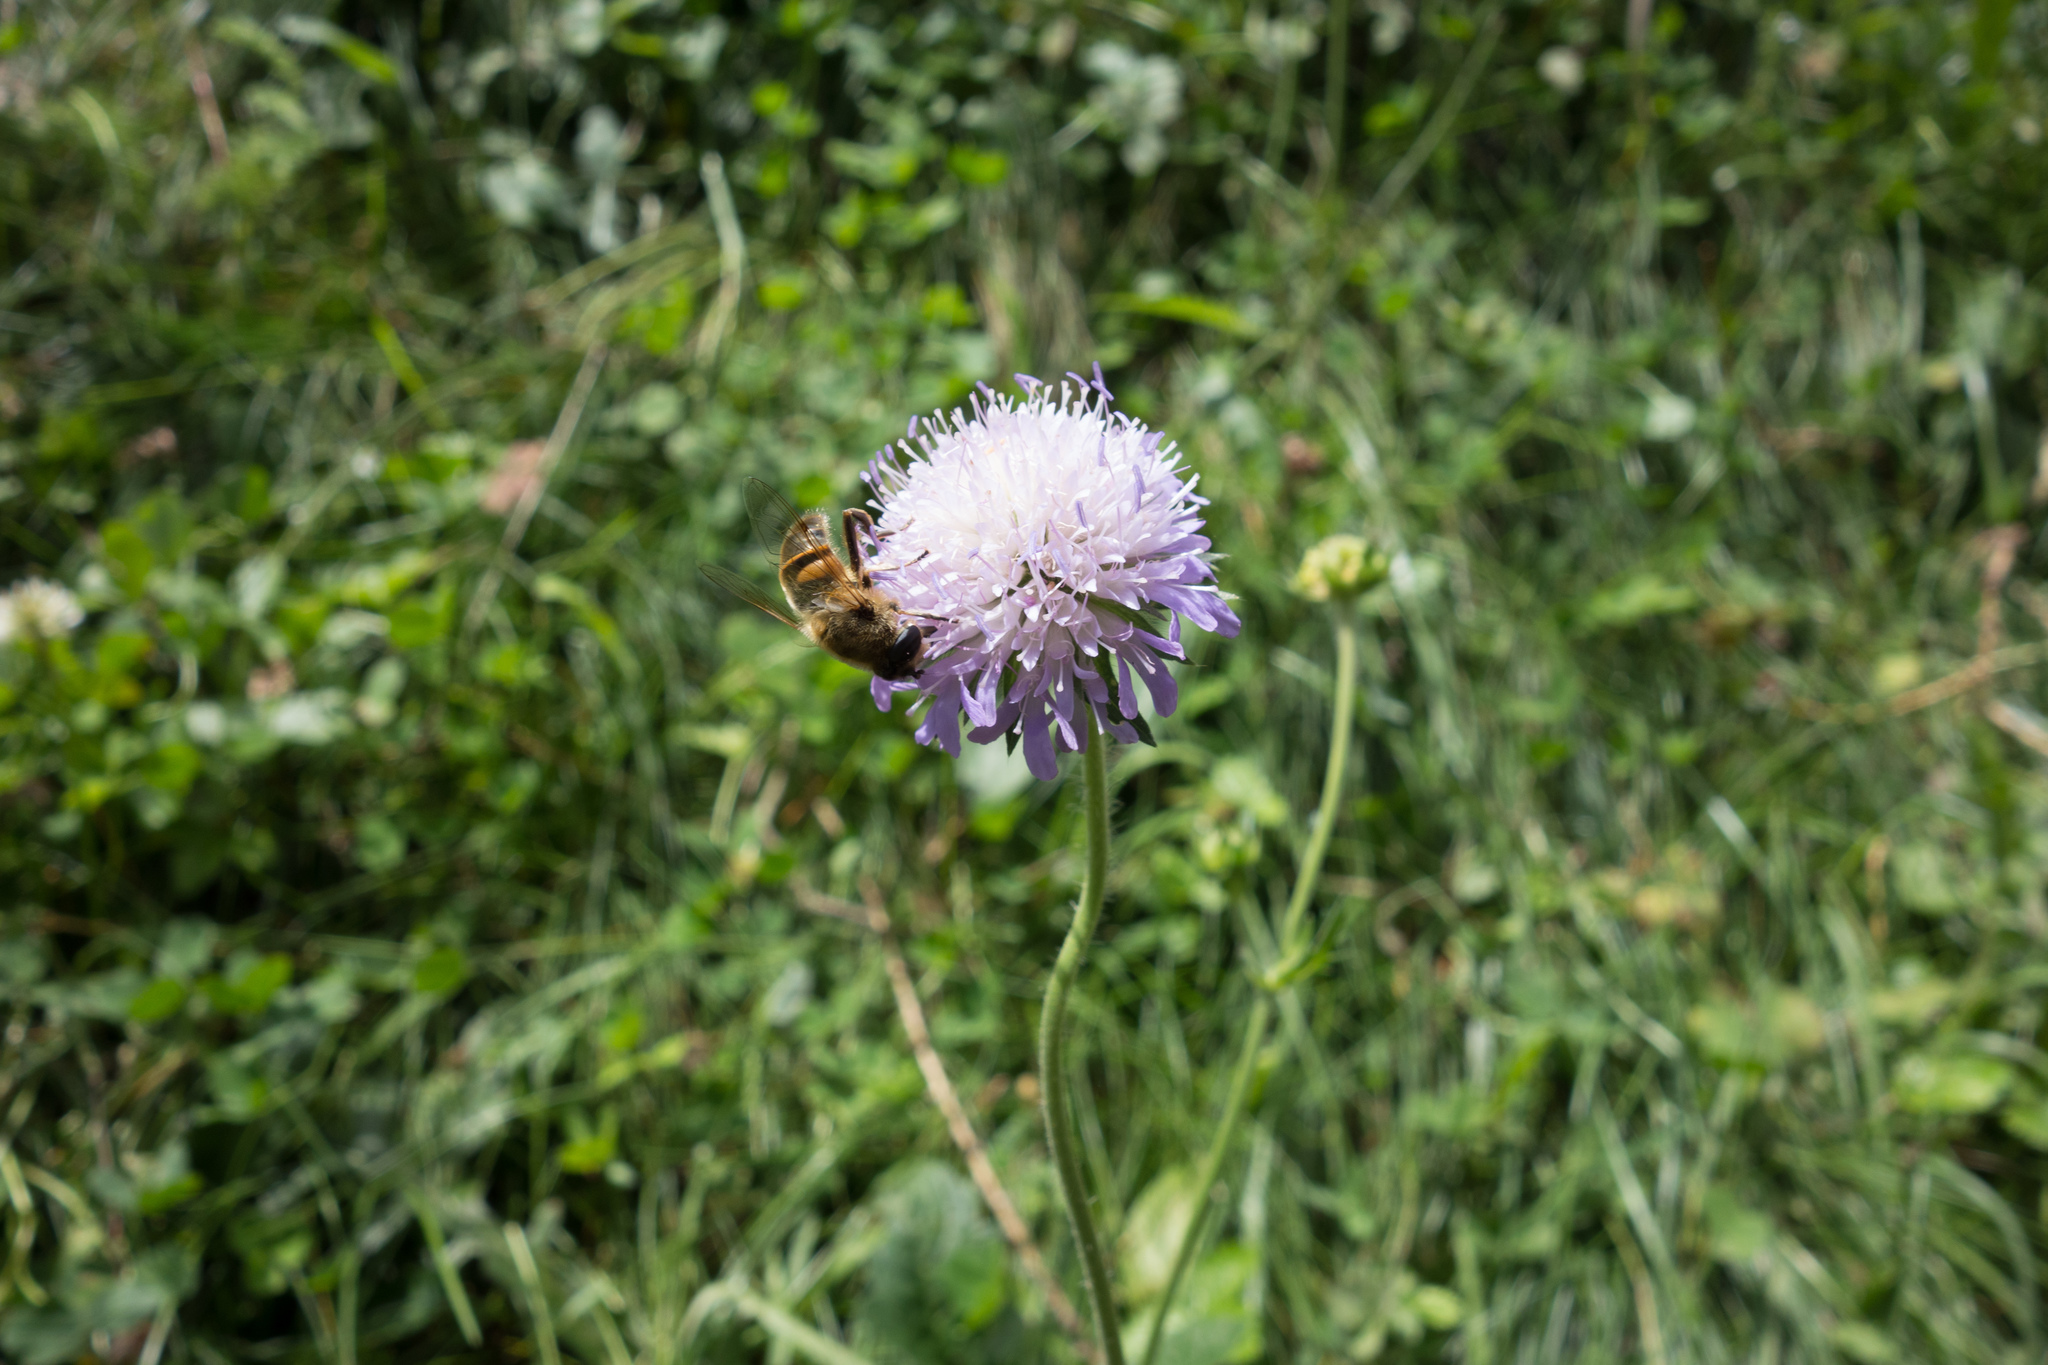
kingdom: Plantae
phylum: Tracheophyta
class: Magnoliopsida
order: Dipsacales
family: Caprifoliaceae
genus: Knautia
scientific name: Knautia arvensis
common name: Field scabiosa
